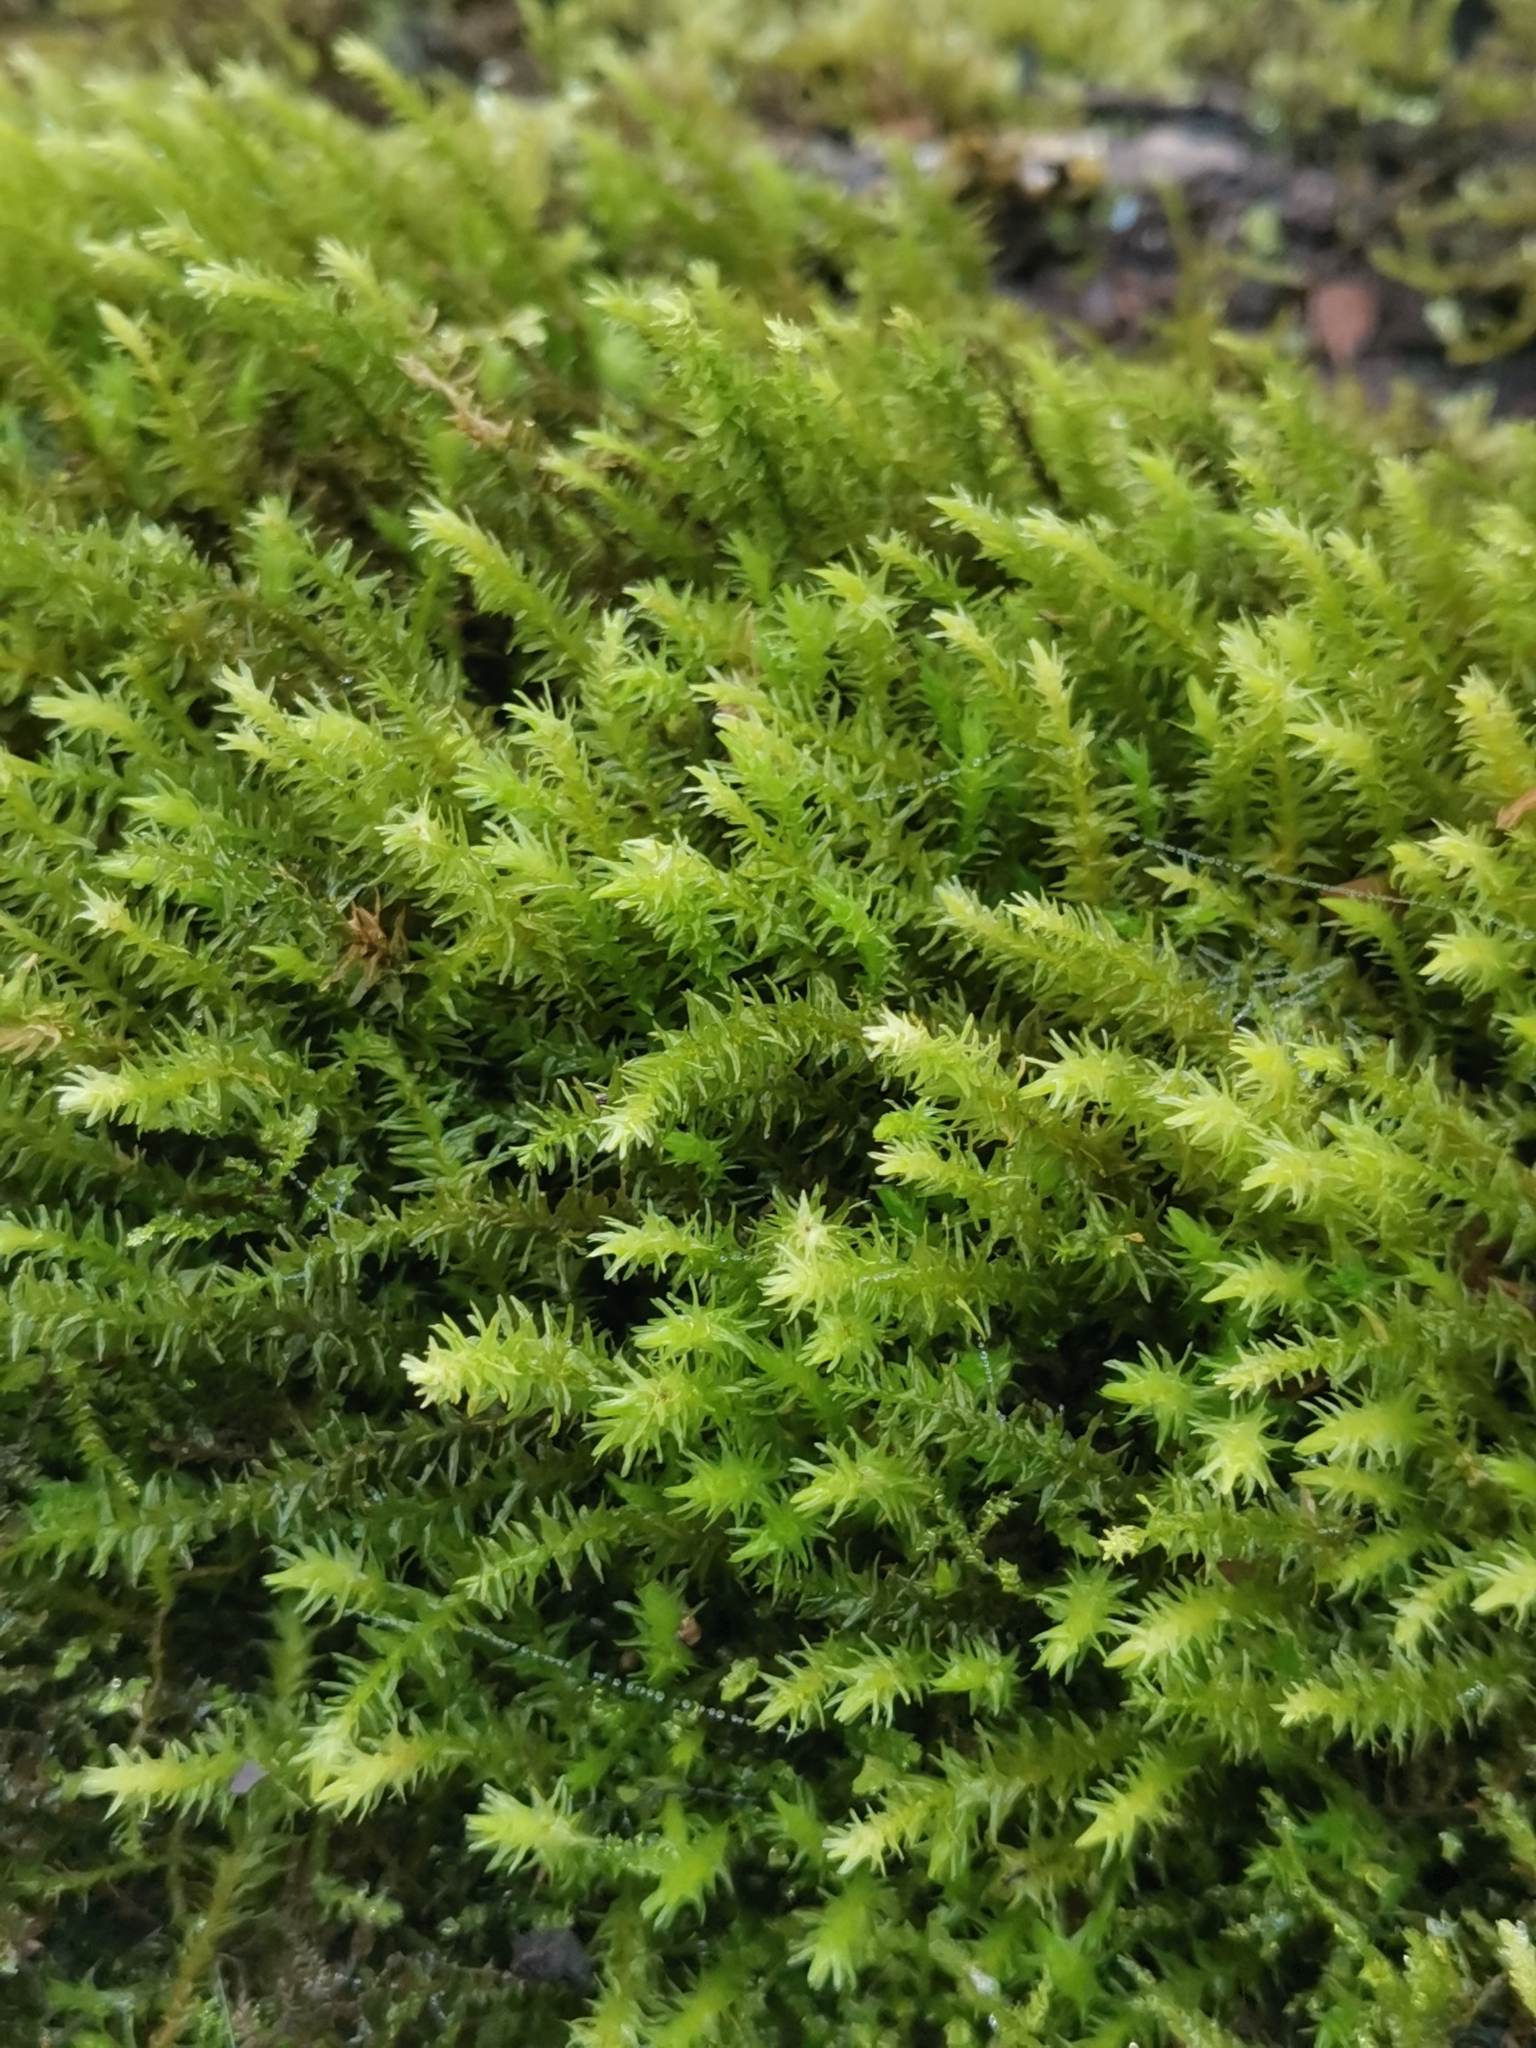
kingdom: Plantae
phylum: Bryophyta
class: Bryopsida
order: Hypnales
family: Anomodontaceae
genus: Anomodon
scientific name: Anomodon viticulosus
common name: Tall anomodon
